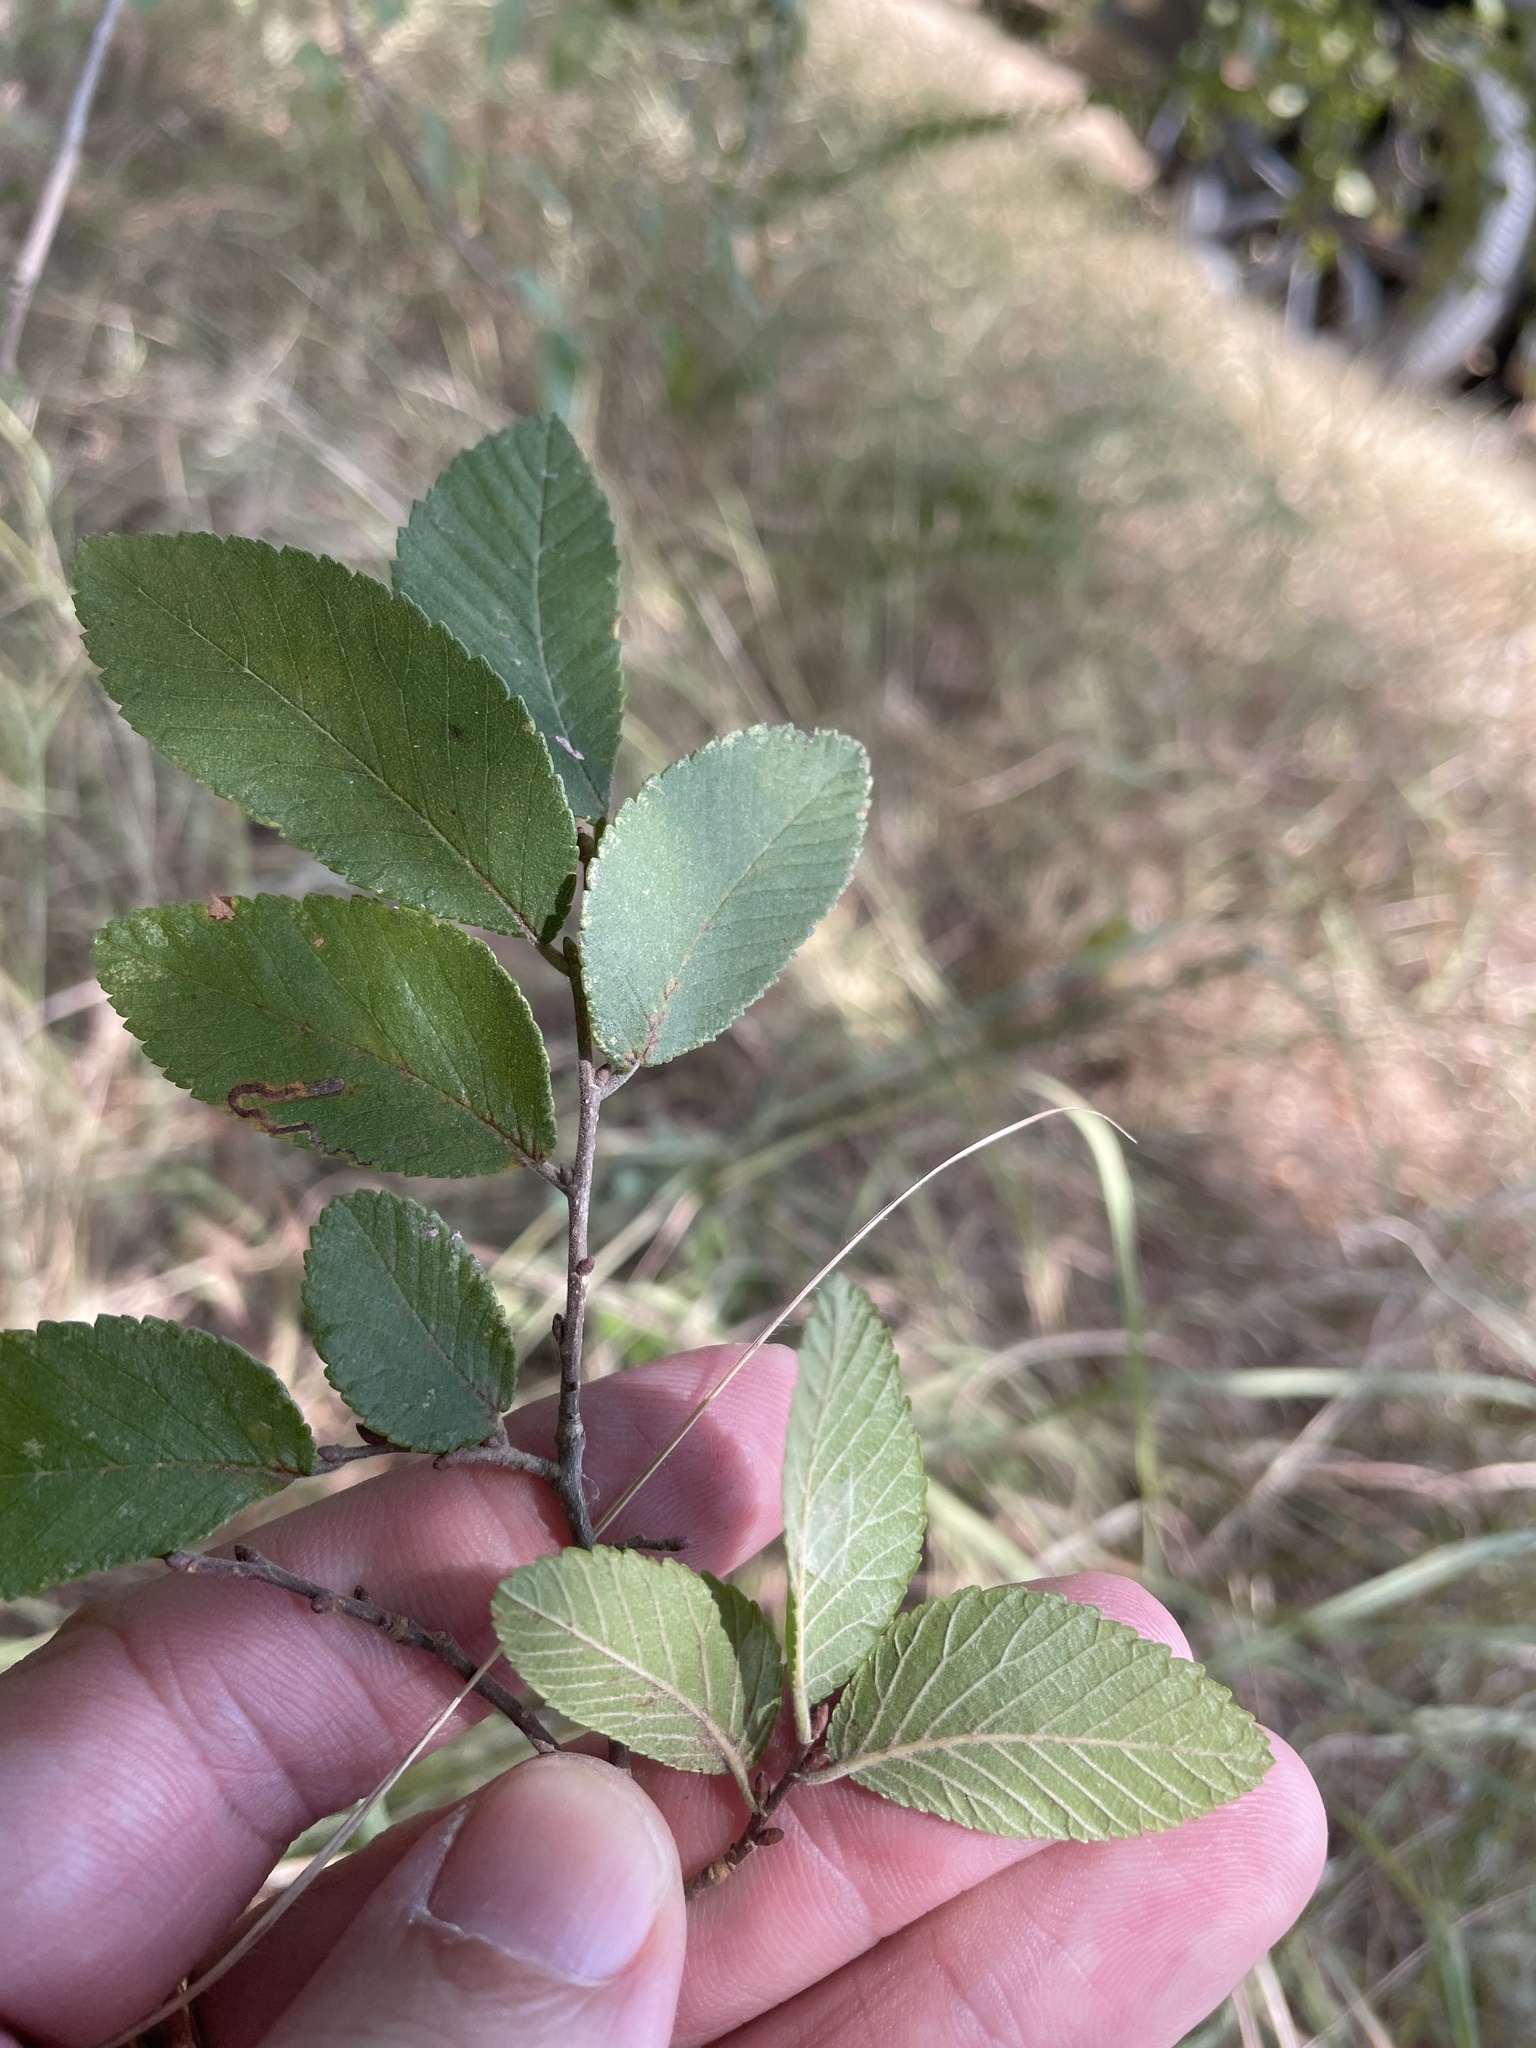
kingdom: Plantae
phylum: Tracheophyta
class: Magnoliopsida
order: Rosales
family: Ulmaceae
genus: Ulmus
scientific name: Ulmus crassifolia
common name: Basket elm
